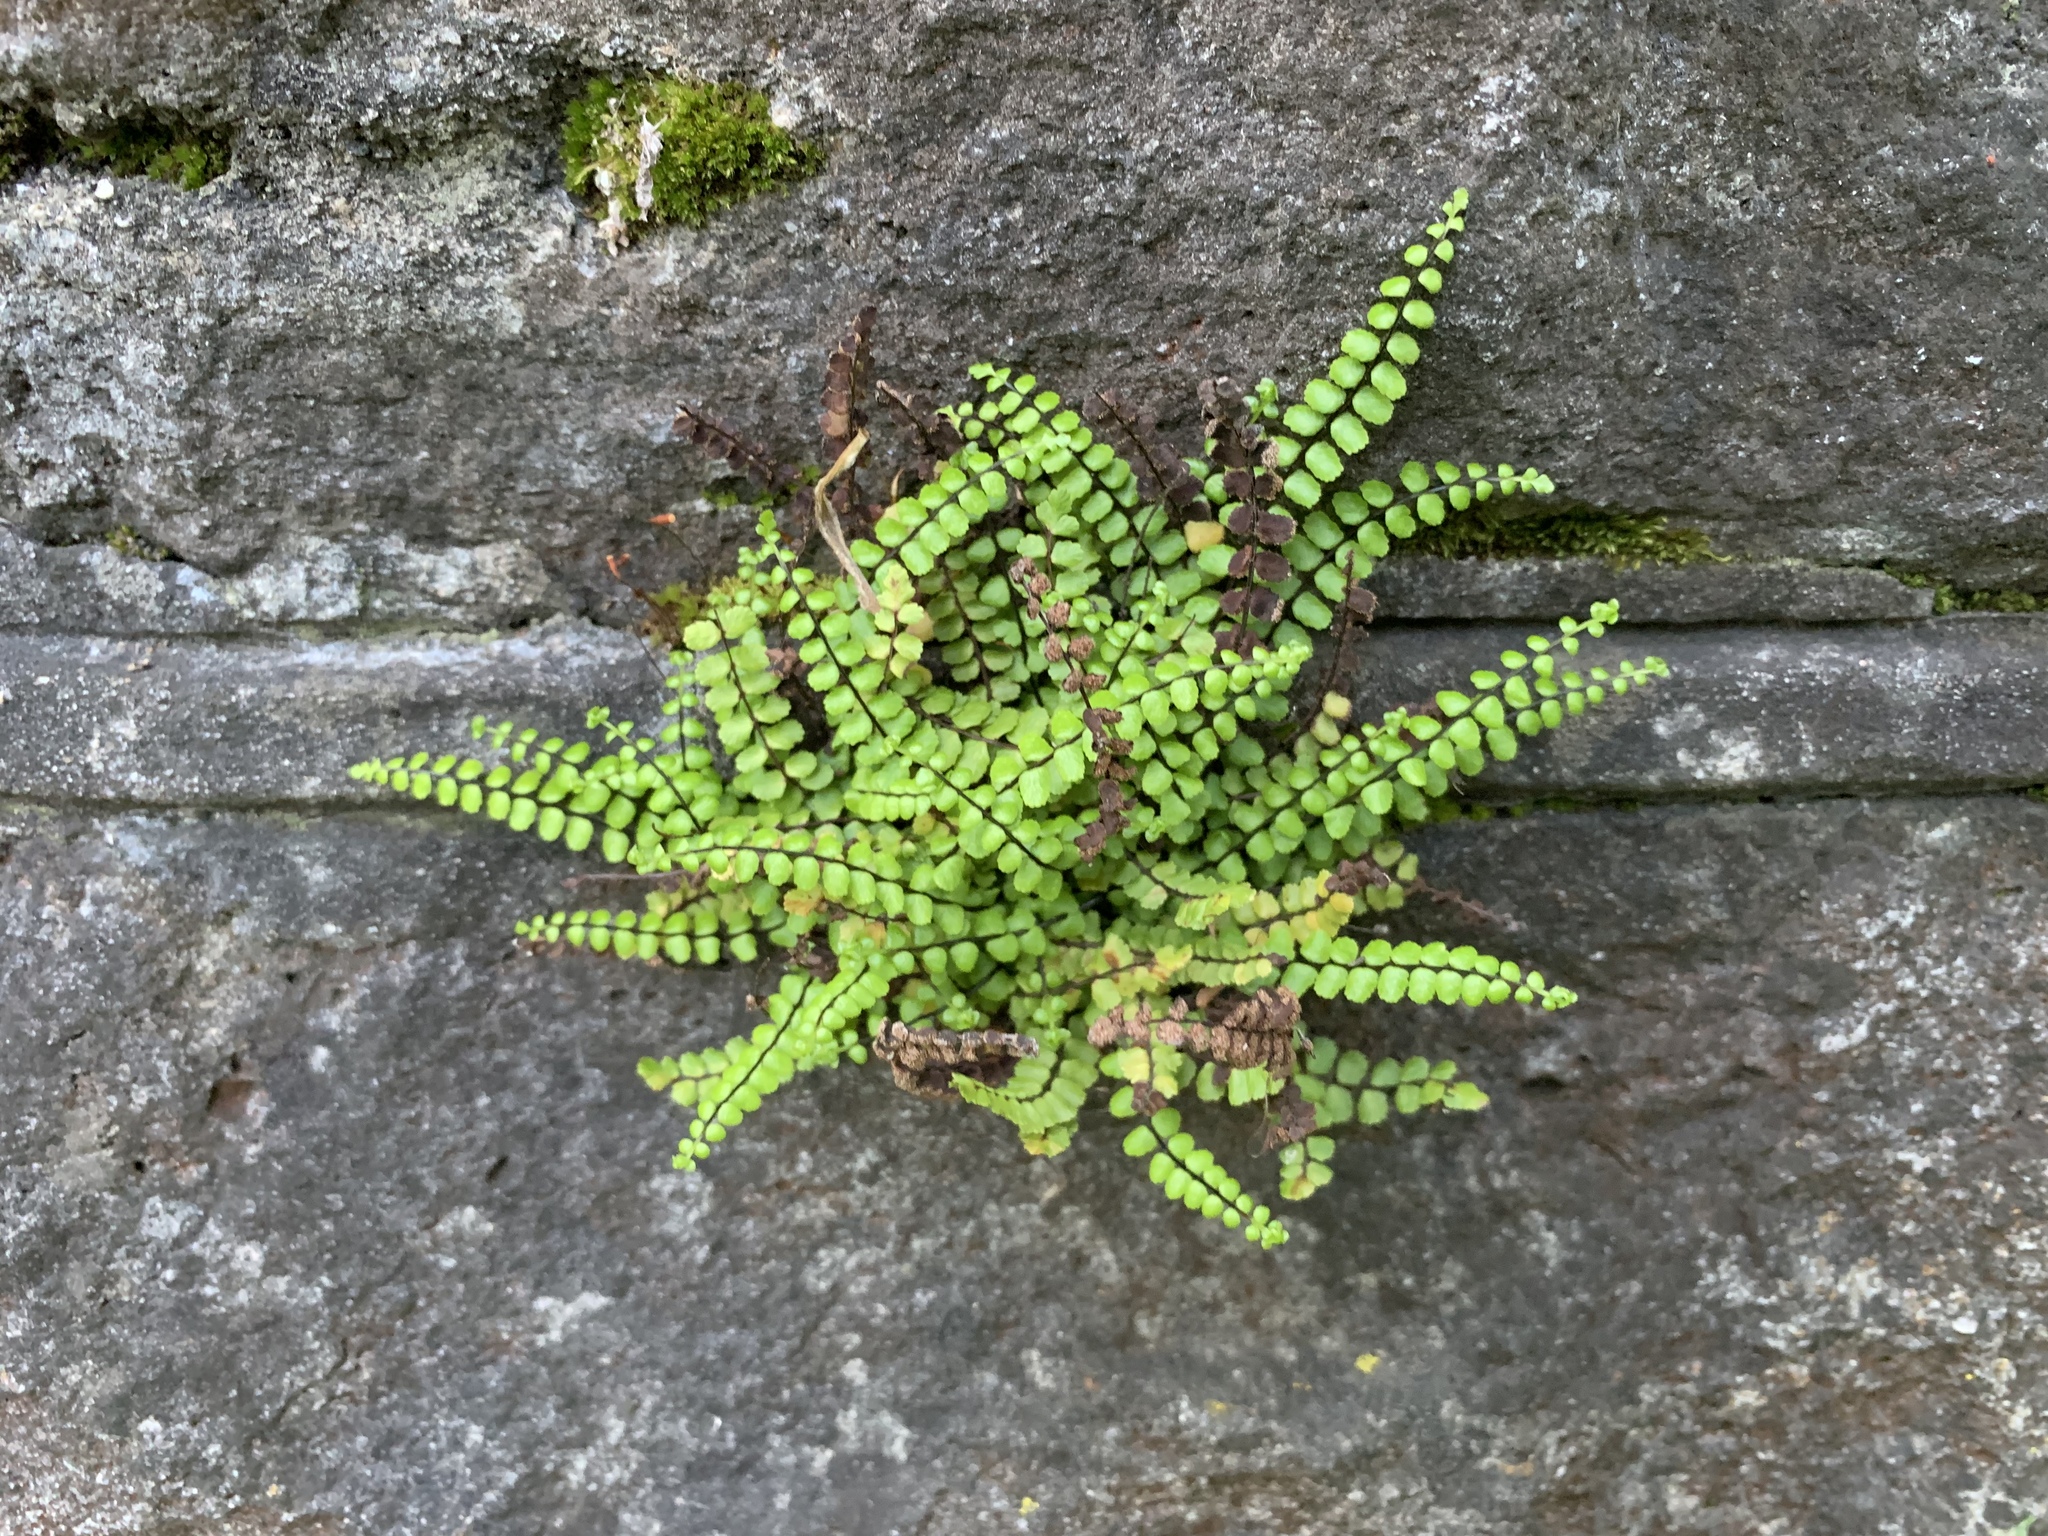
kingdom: Plantae
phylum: Tracheophyta
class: Polypodiopsida
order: Polypodiales
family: Aspleniaceae
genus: Asplenium
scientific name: Asplenium trichomanes
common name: Maidenhair spleenwort
